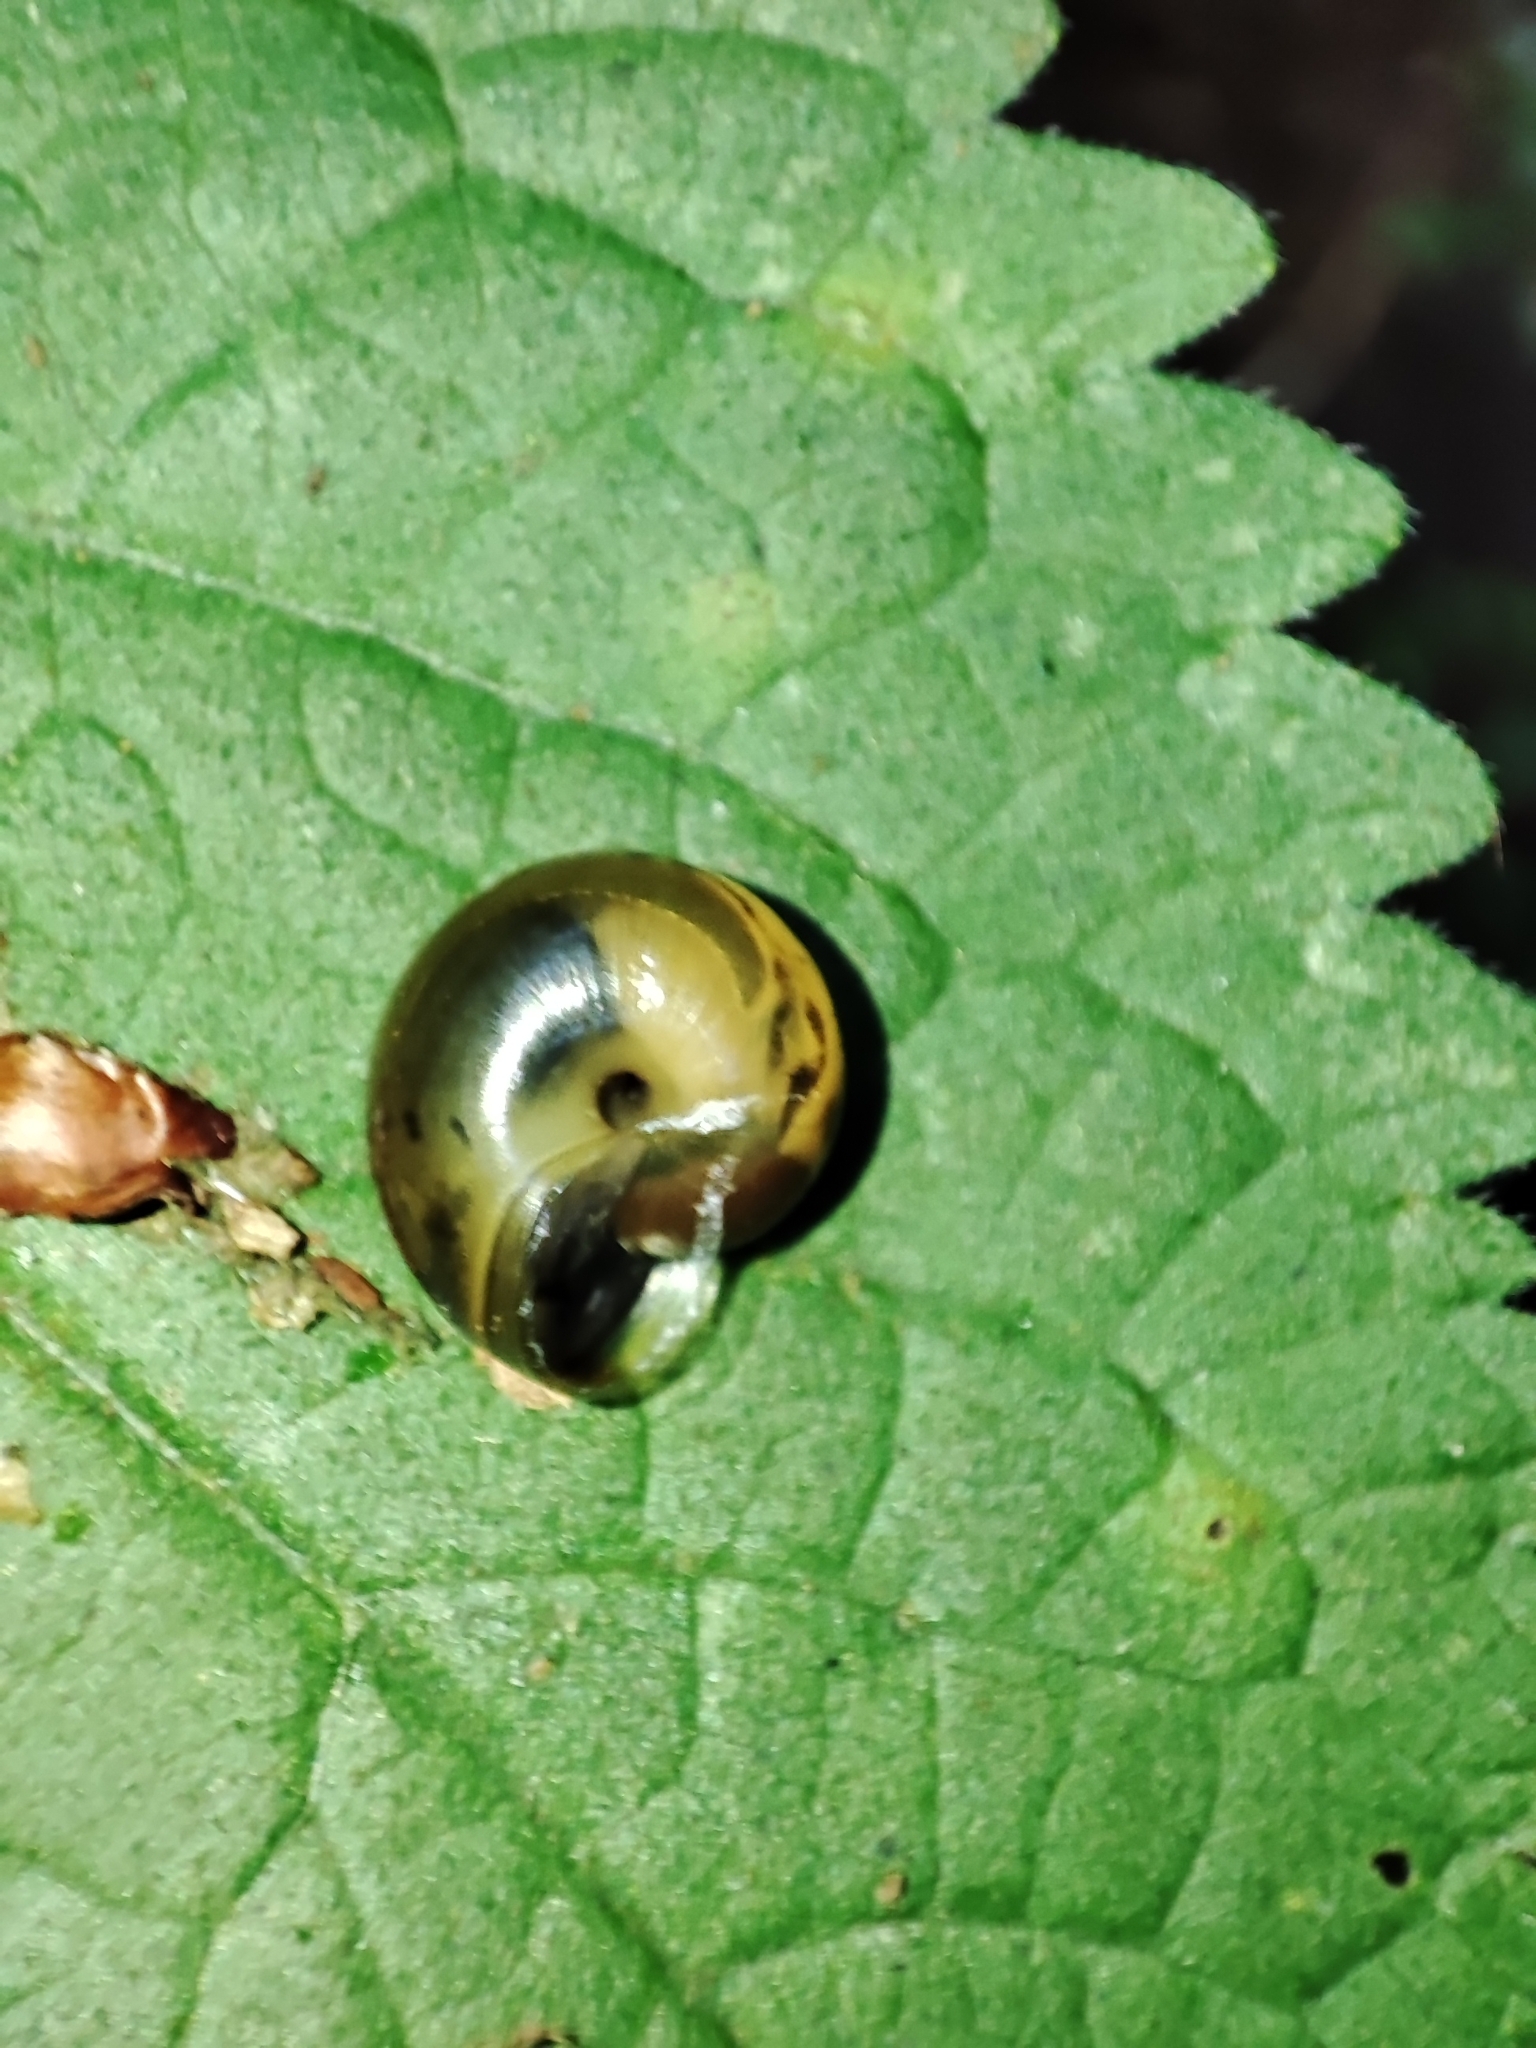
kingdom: Animalia
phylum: Mollusca
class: Gastropoda
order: Stylommatophora
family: Helicidae
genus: Faustina
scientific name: Faustina faustina
